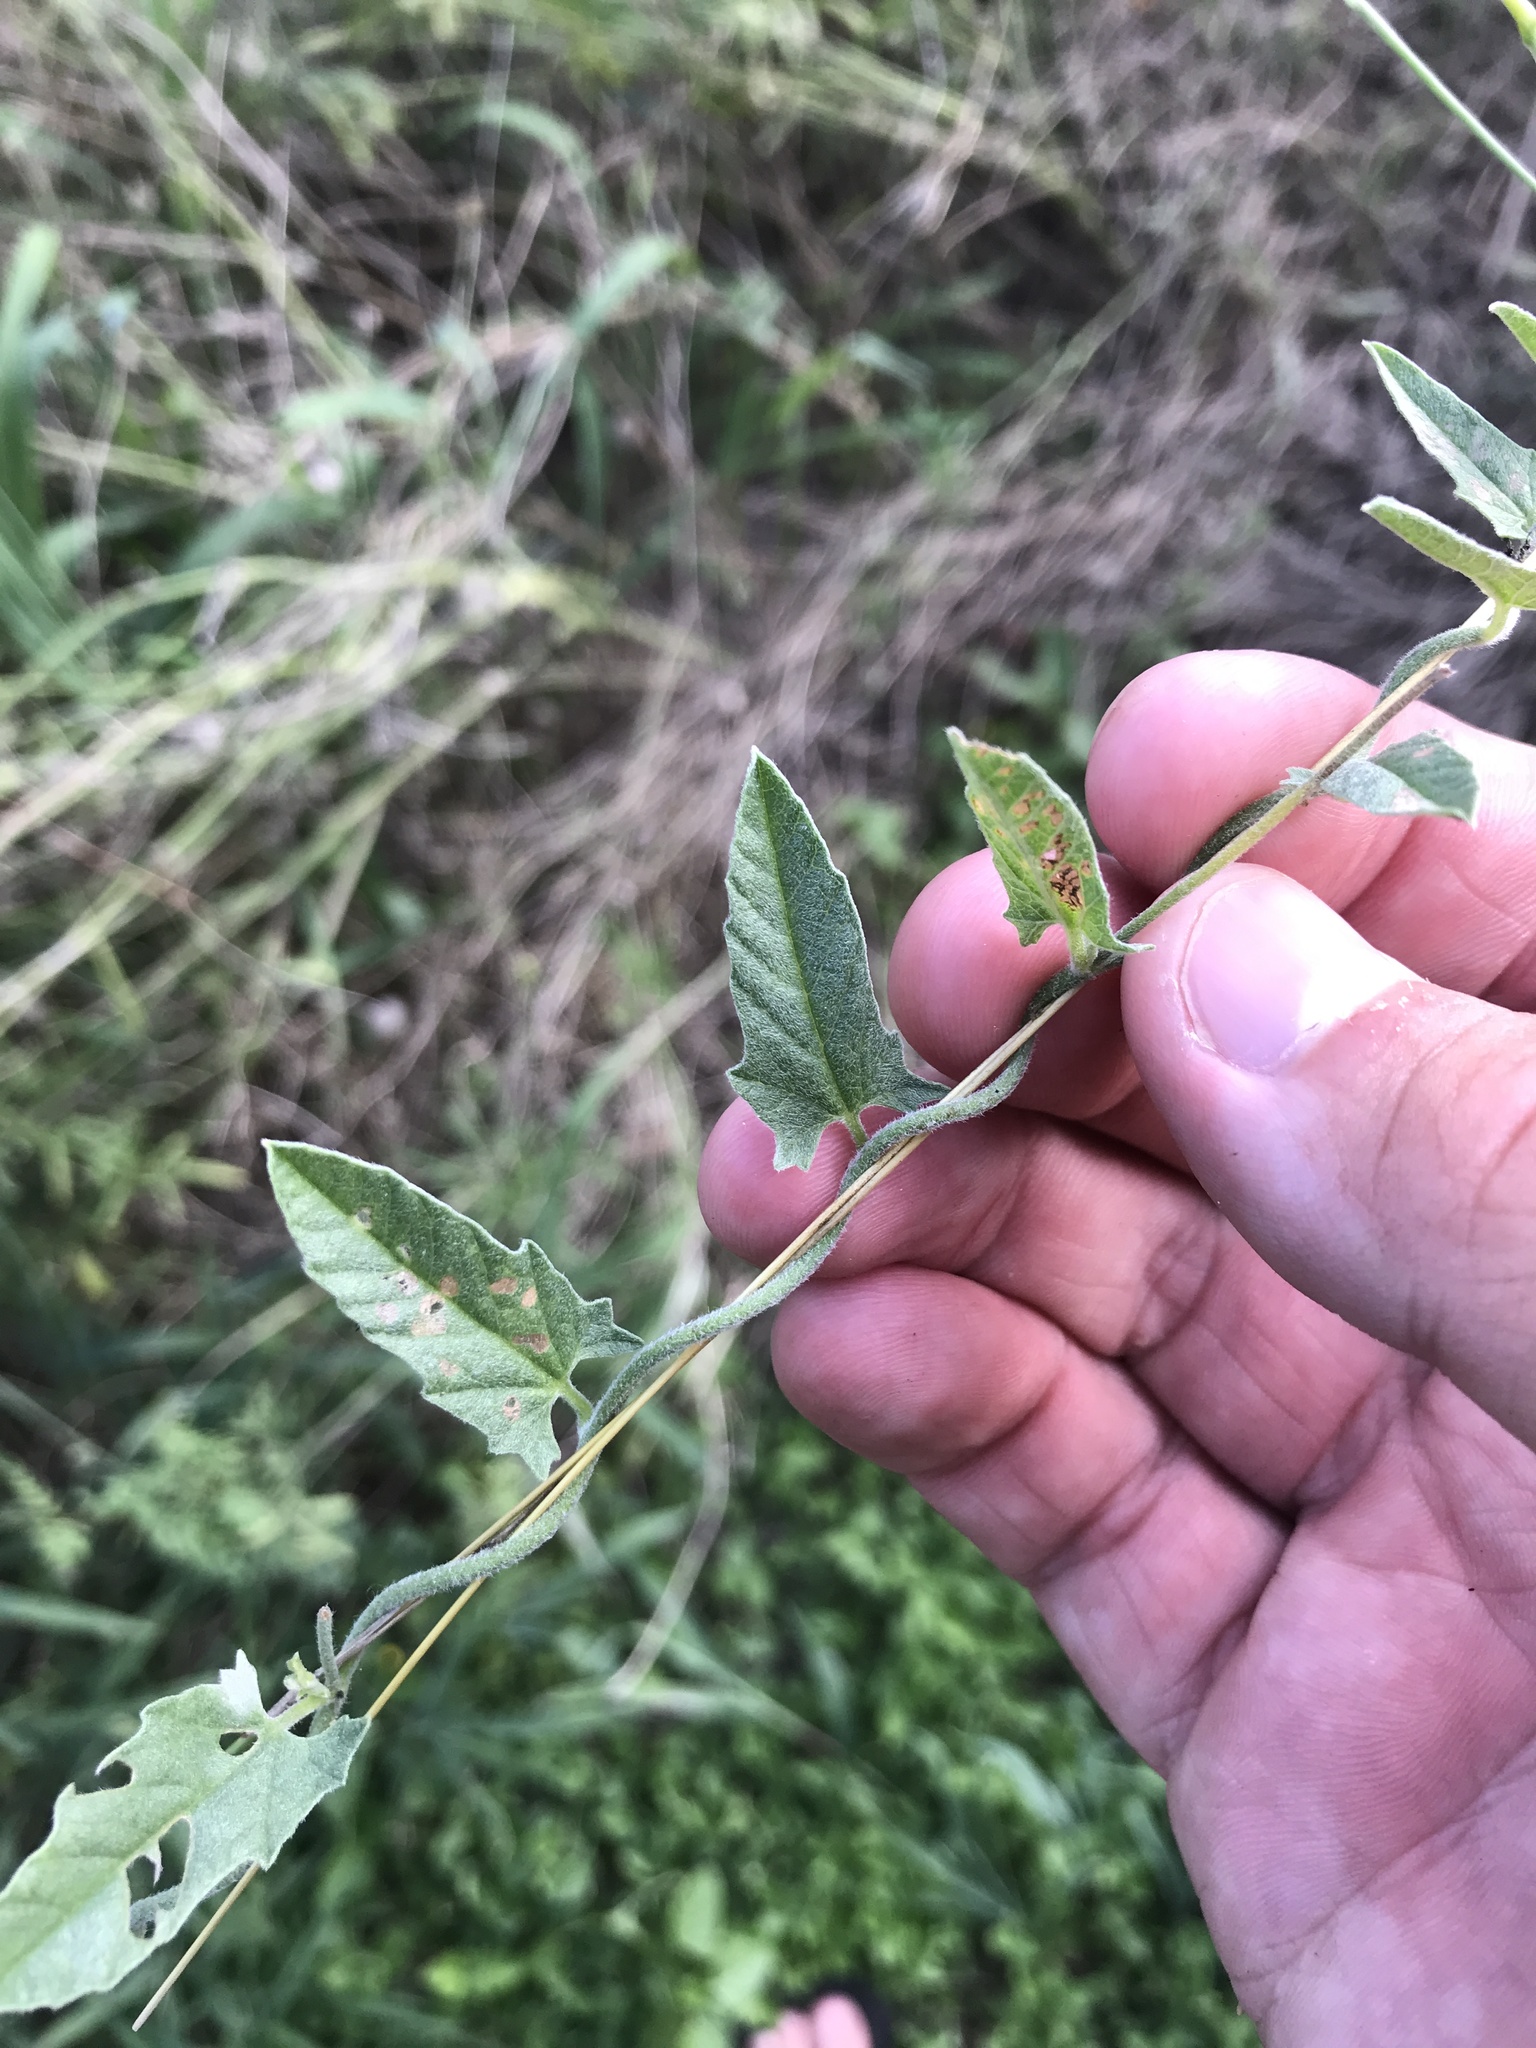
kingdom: Plantae
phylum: Tracheophyta
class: Magnoliopsida
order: Solanales
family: Convolvulaceae
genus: Convolvulus
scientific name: Convolvulus equitans
